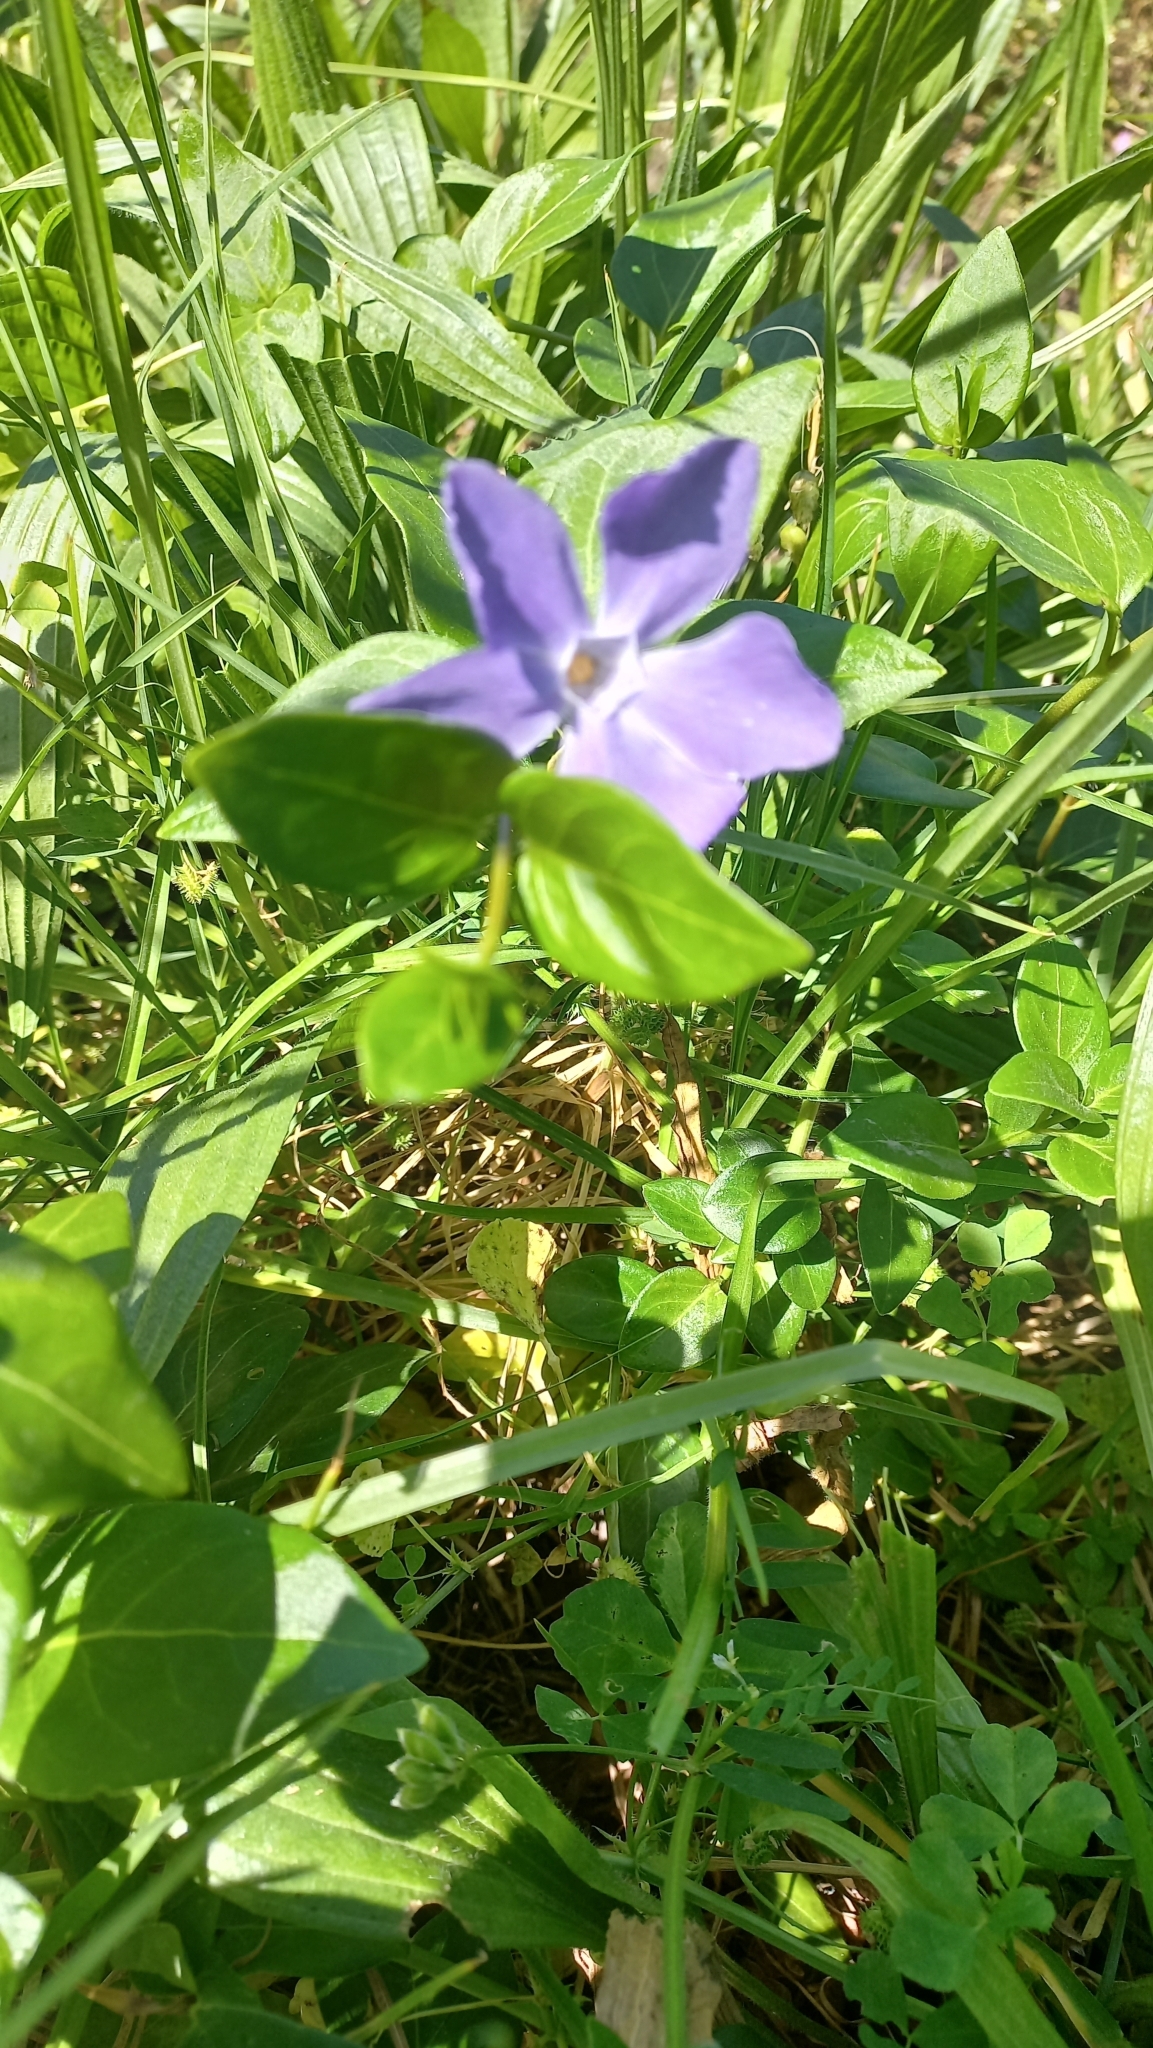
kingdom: Plantae
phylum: Tracheophyta
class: Magnoliopsida
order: Gentianales
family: Apocynaceae
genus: Vinca
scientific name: Vinca major
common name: Greater periwinkle
